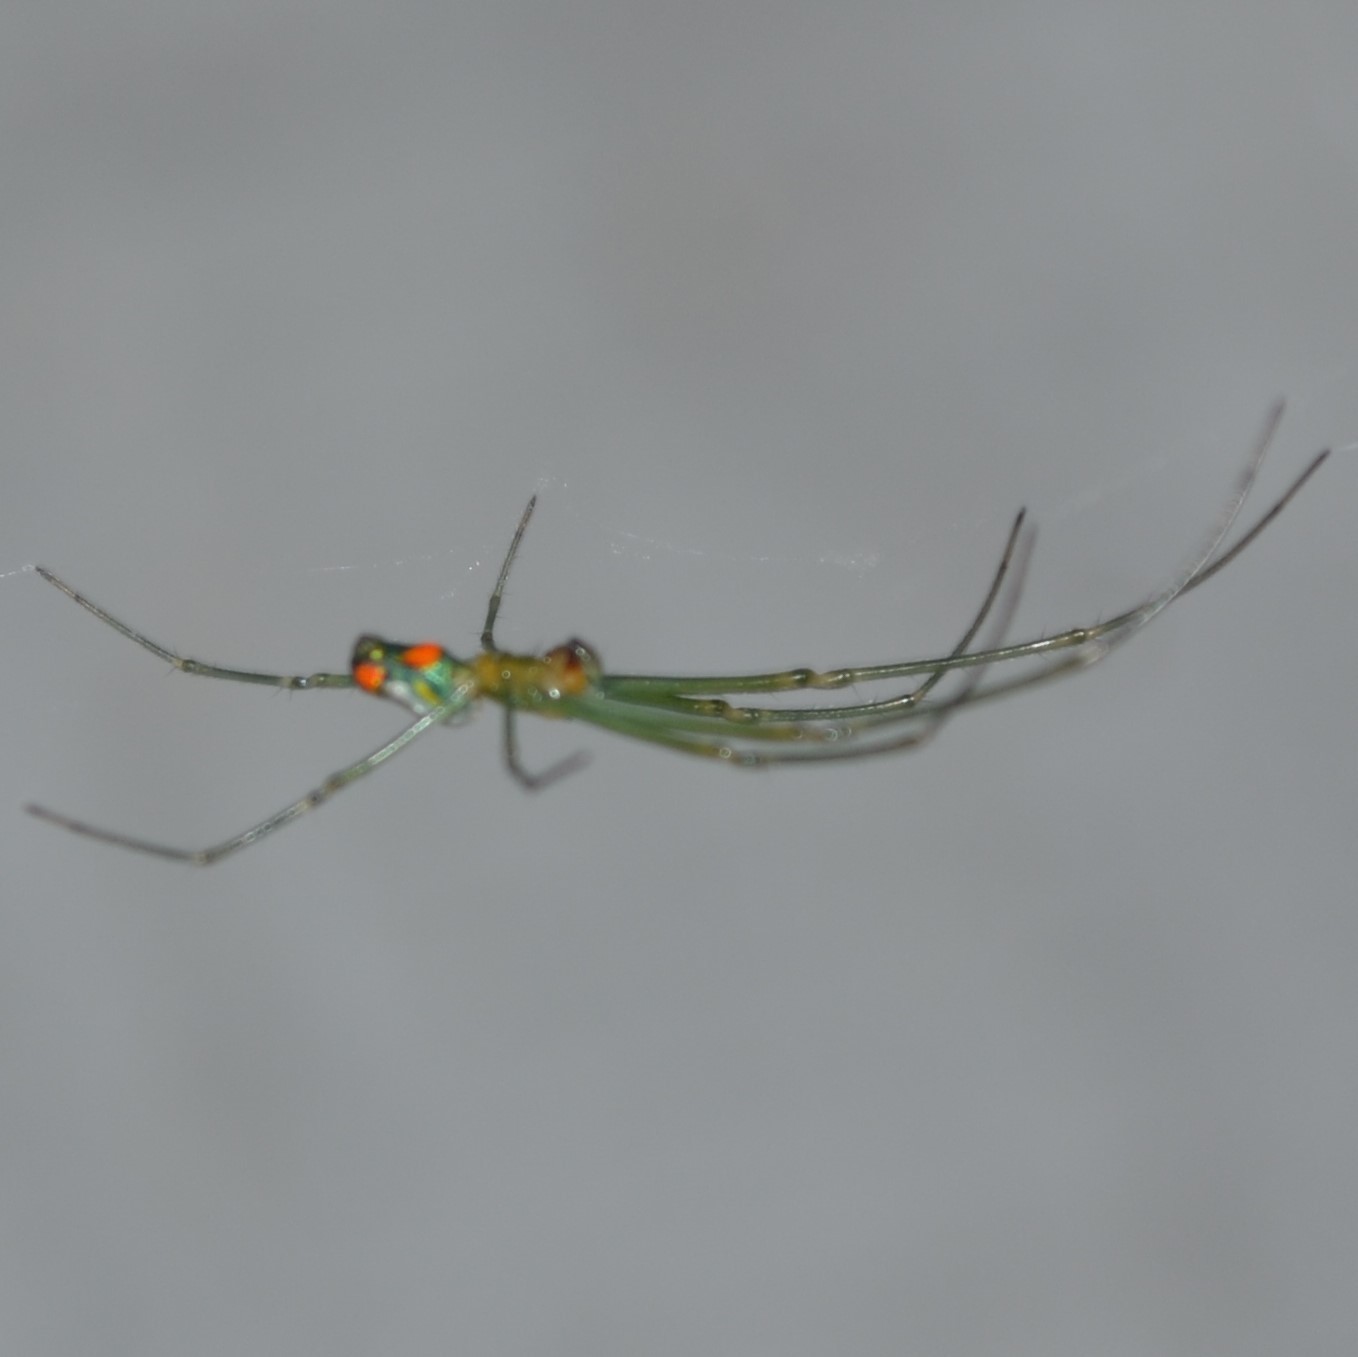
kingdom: Animalia
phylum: Arthropoda
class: Arachnida
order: Araneae
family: Tetragnathidae
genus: Leucauge
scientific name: Leucauge argyrobapta
